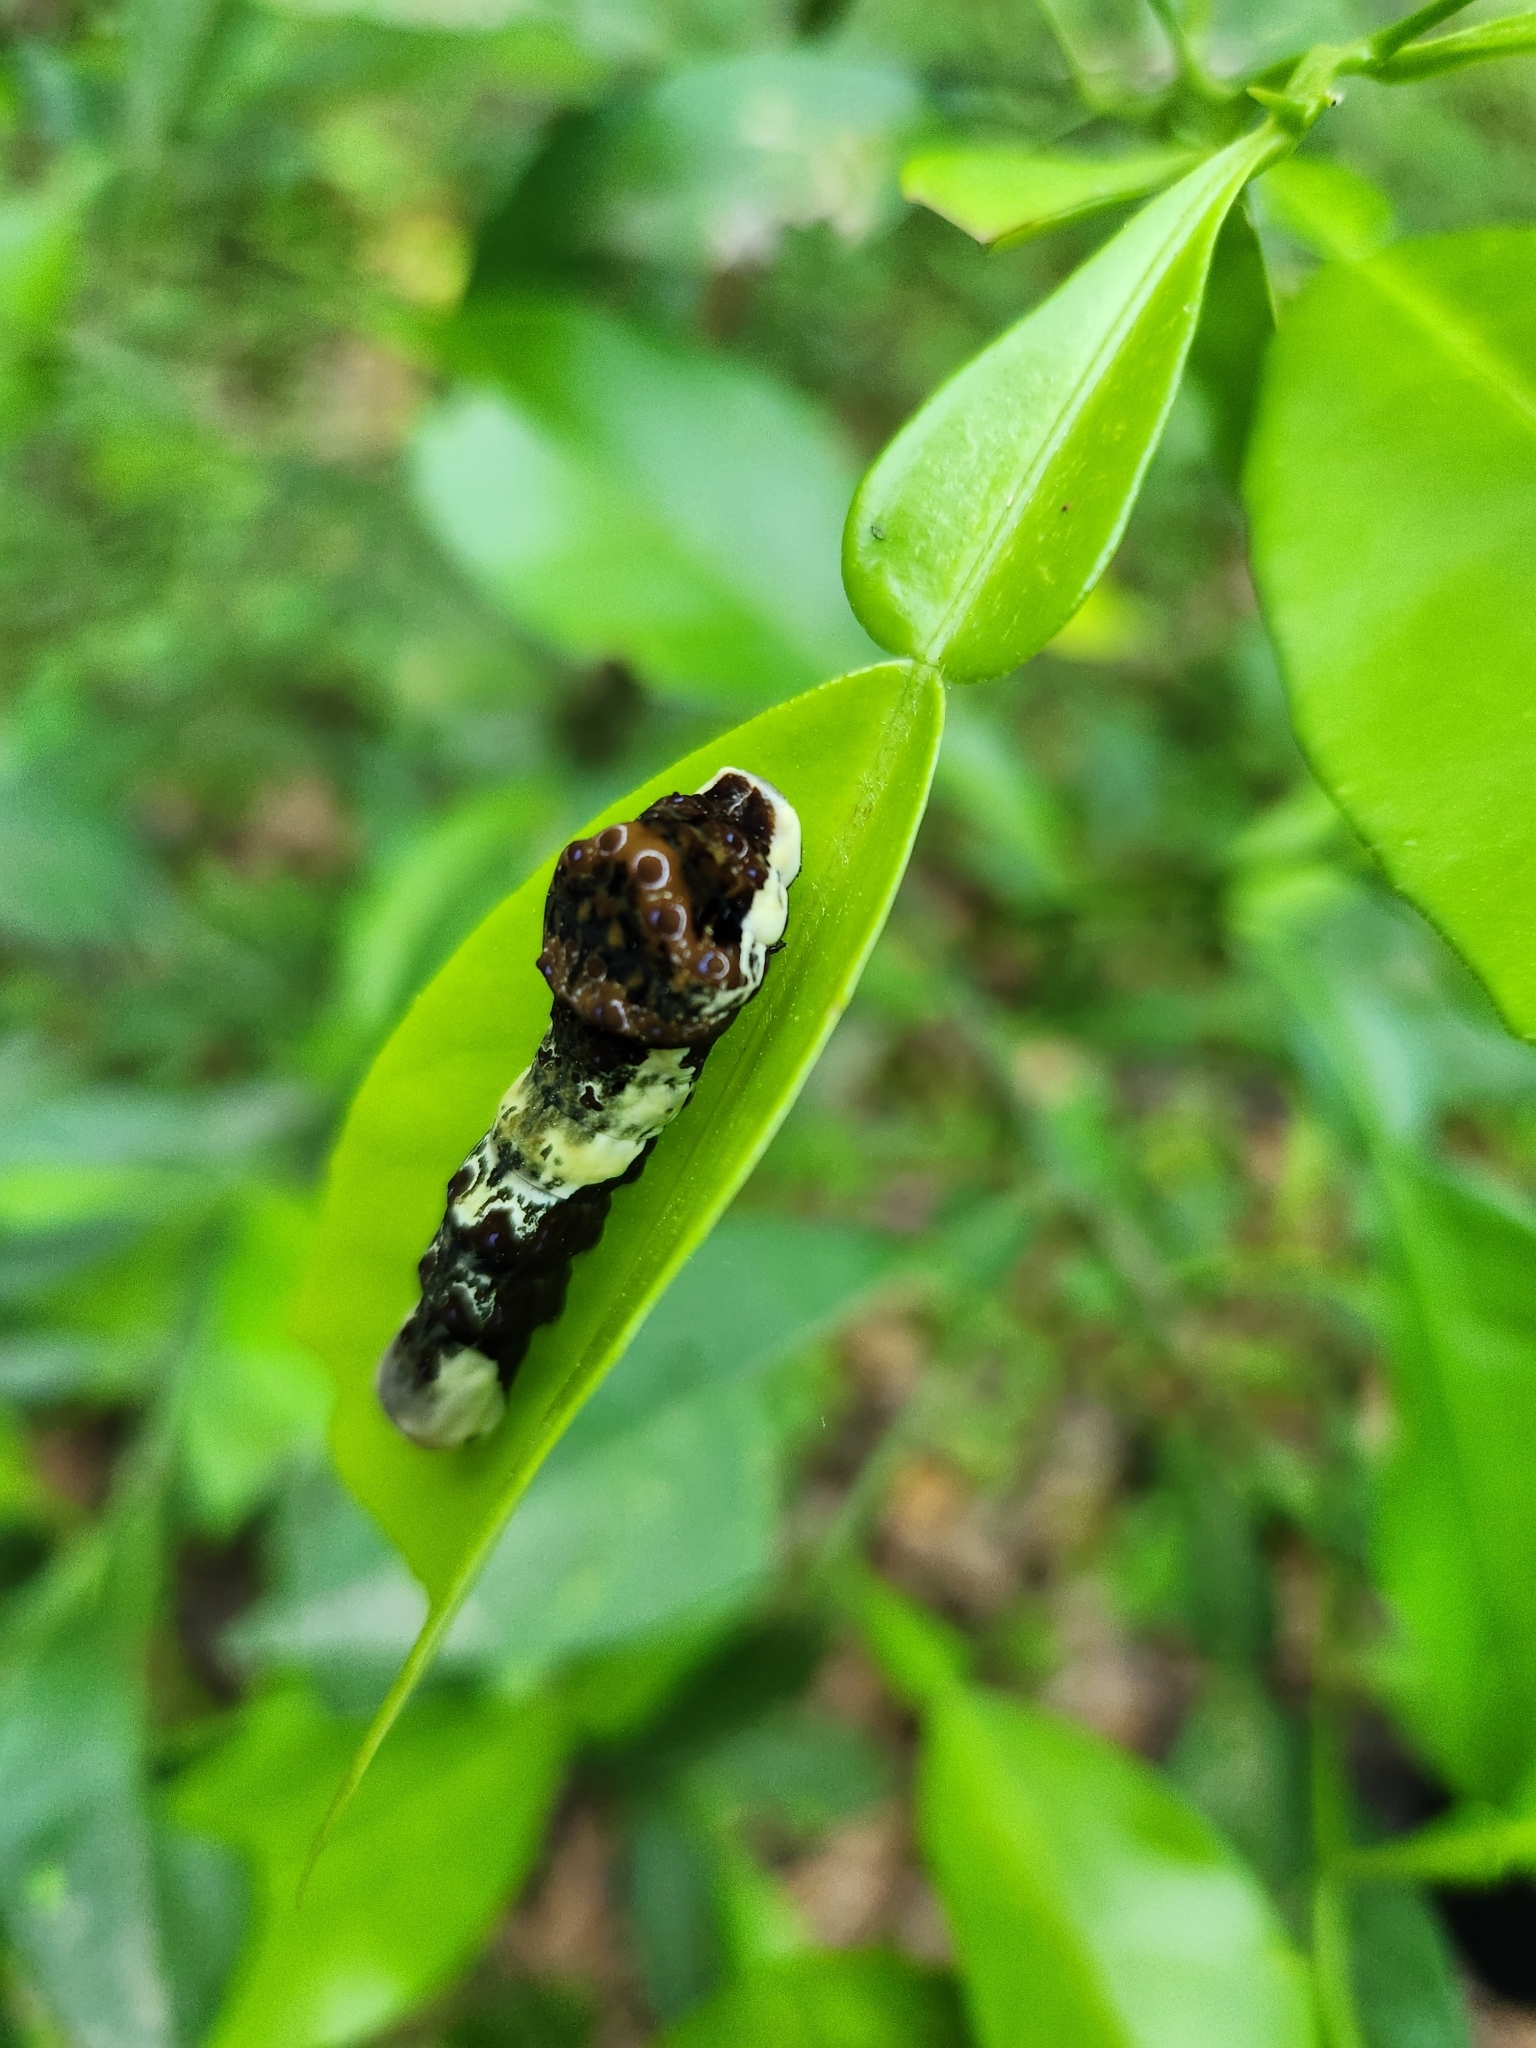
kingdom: Animalia
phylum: Arthropoda
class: Insecta
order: Lepidoptera
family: Papilionidae
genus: Papilio
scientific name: Papilio cresphontes
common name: Giant swallowtail
